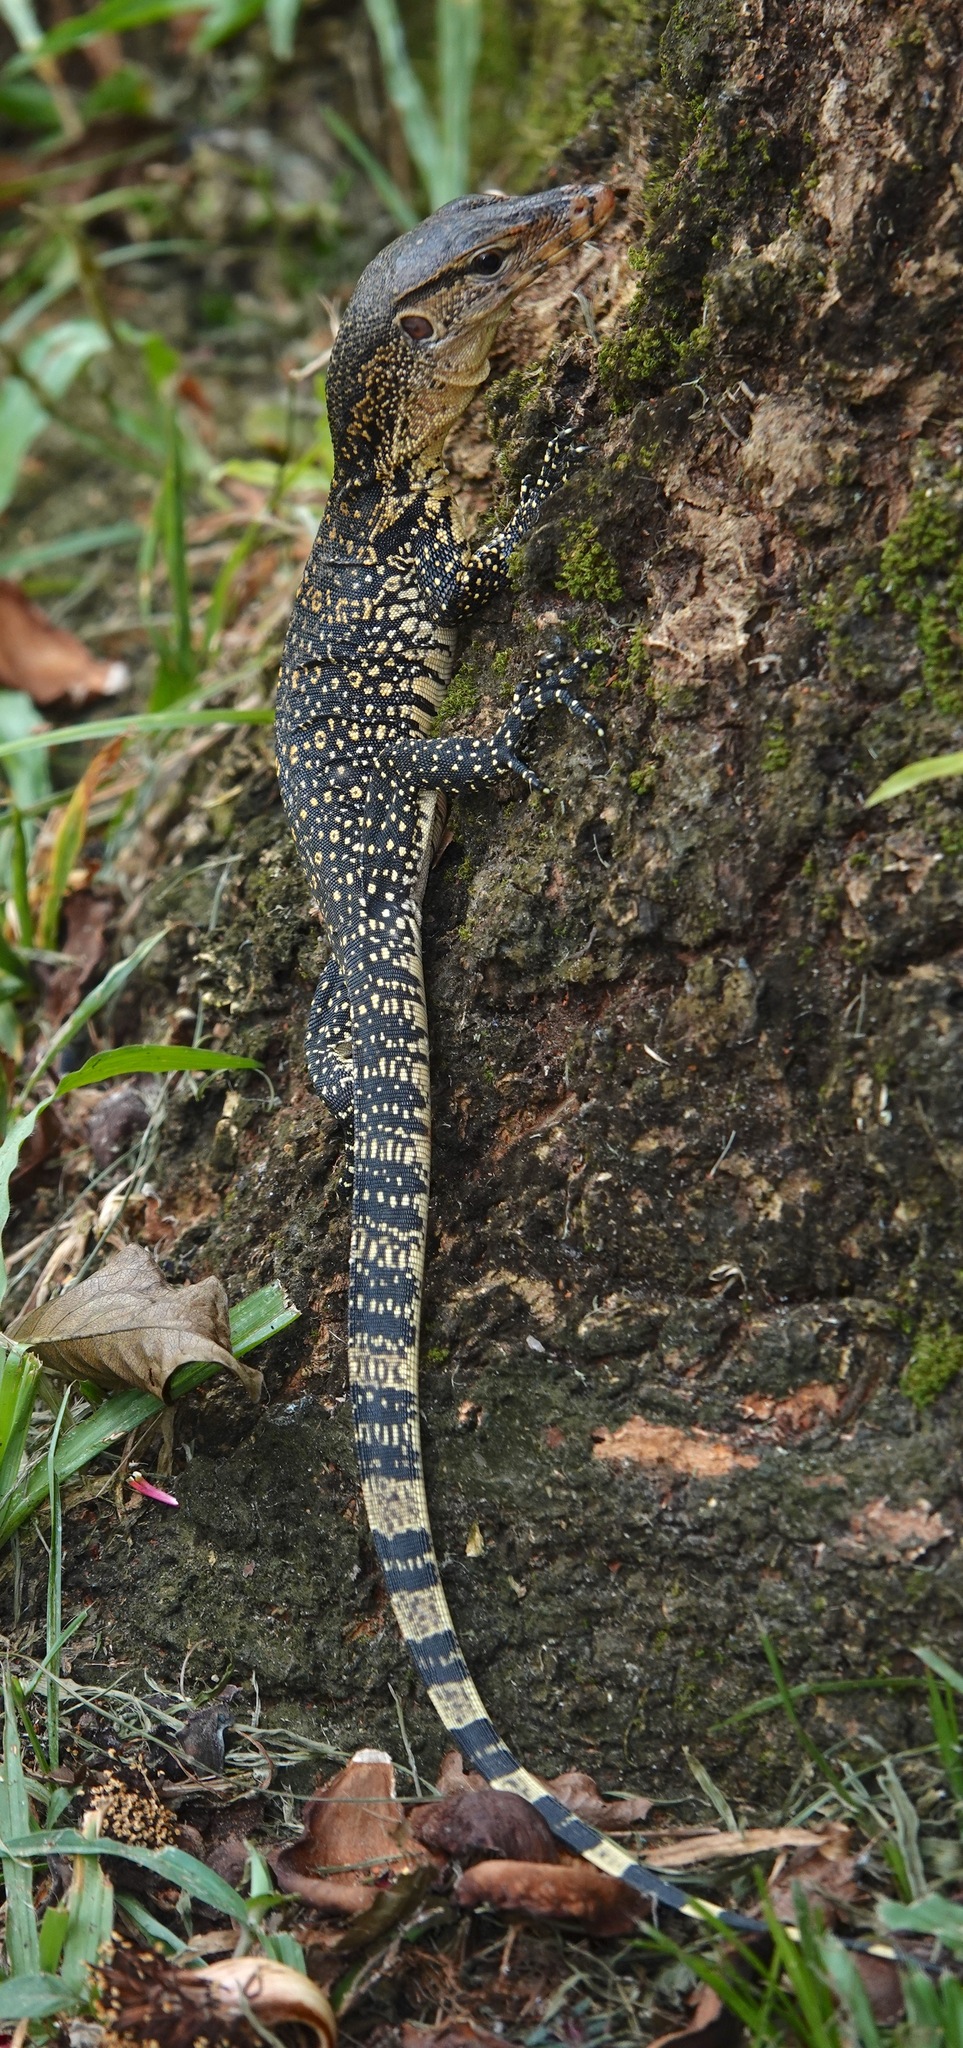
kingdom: Animalia
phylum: Chordata
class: Squamata
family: Varanidae
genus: Varanus
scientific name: Varanus salvator
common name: Common water monitor
